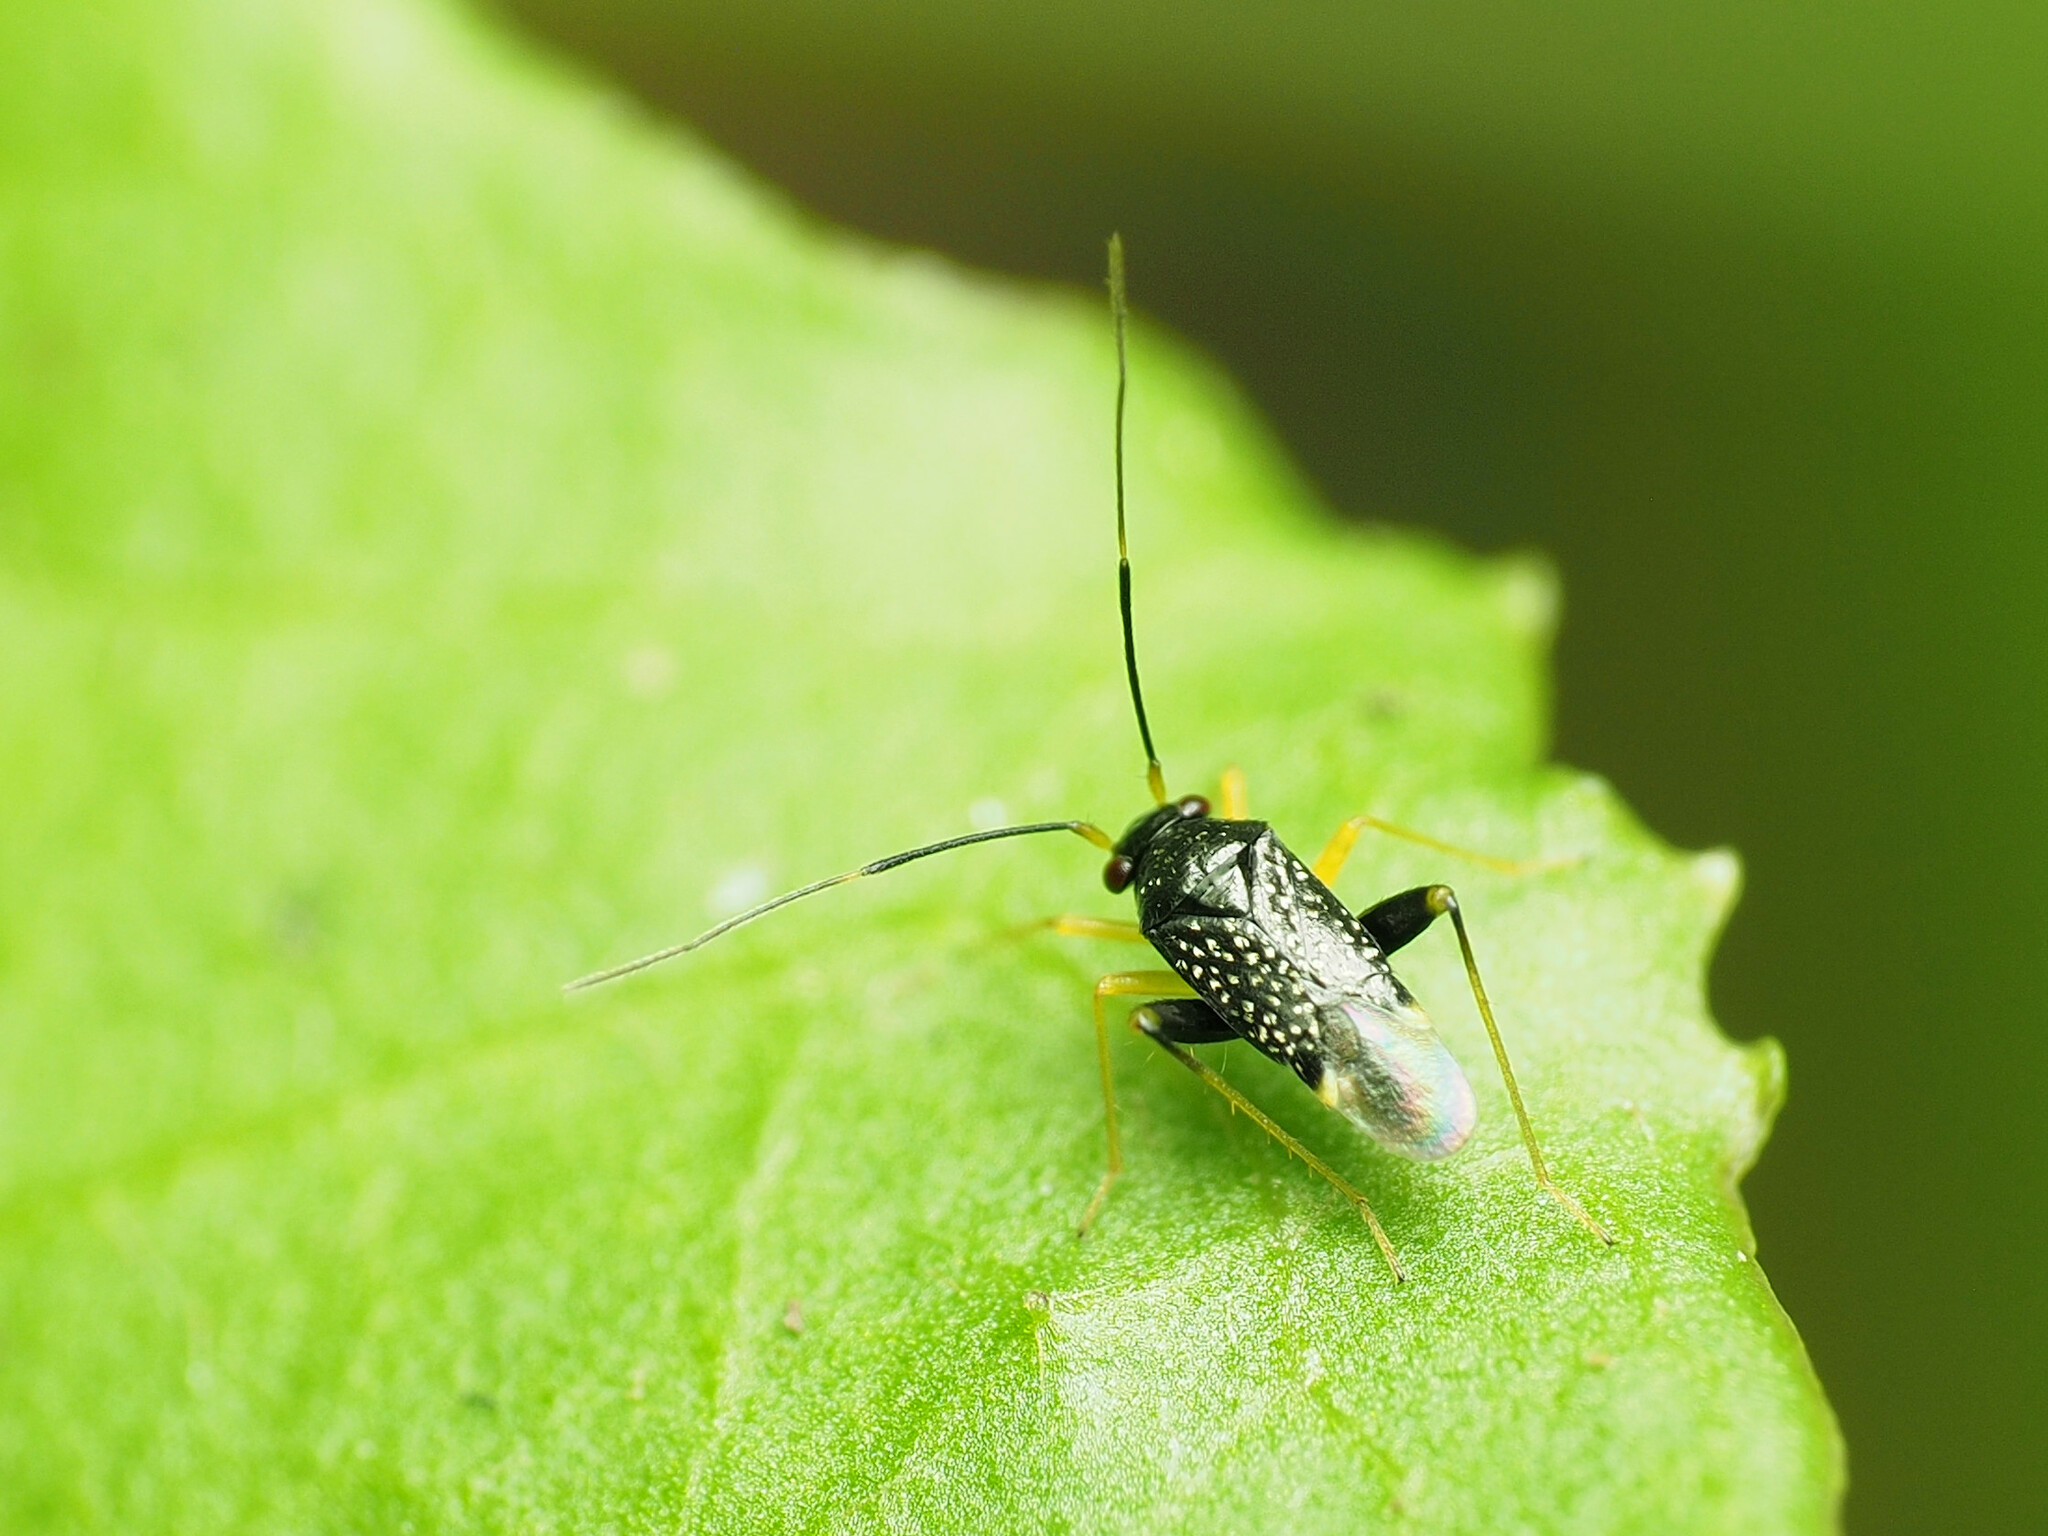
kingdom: Animalia
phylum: Arthropoda
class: Insecta
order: Hemiptera
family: Miridae
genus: Microtechnites
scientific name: Microtechnites bractatus
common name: Garden fleahopper
